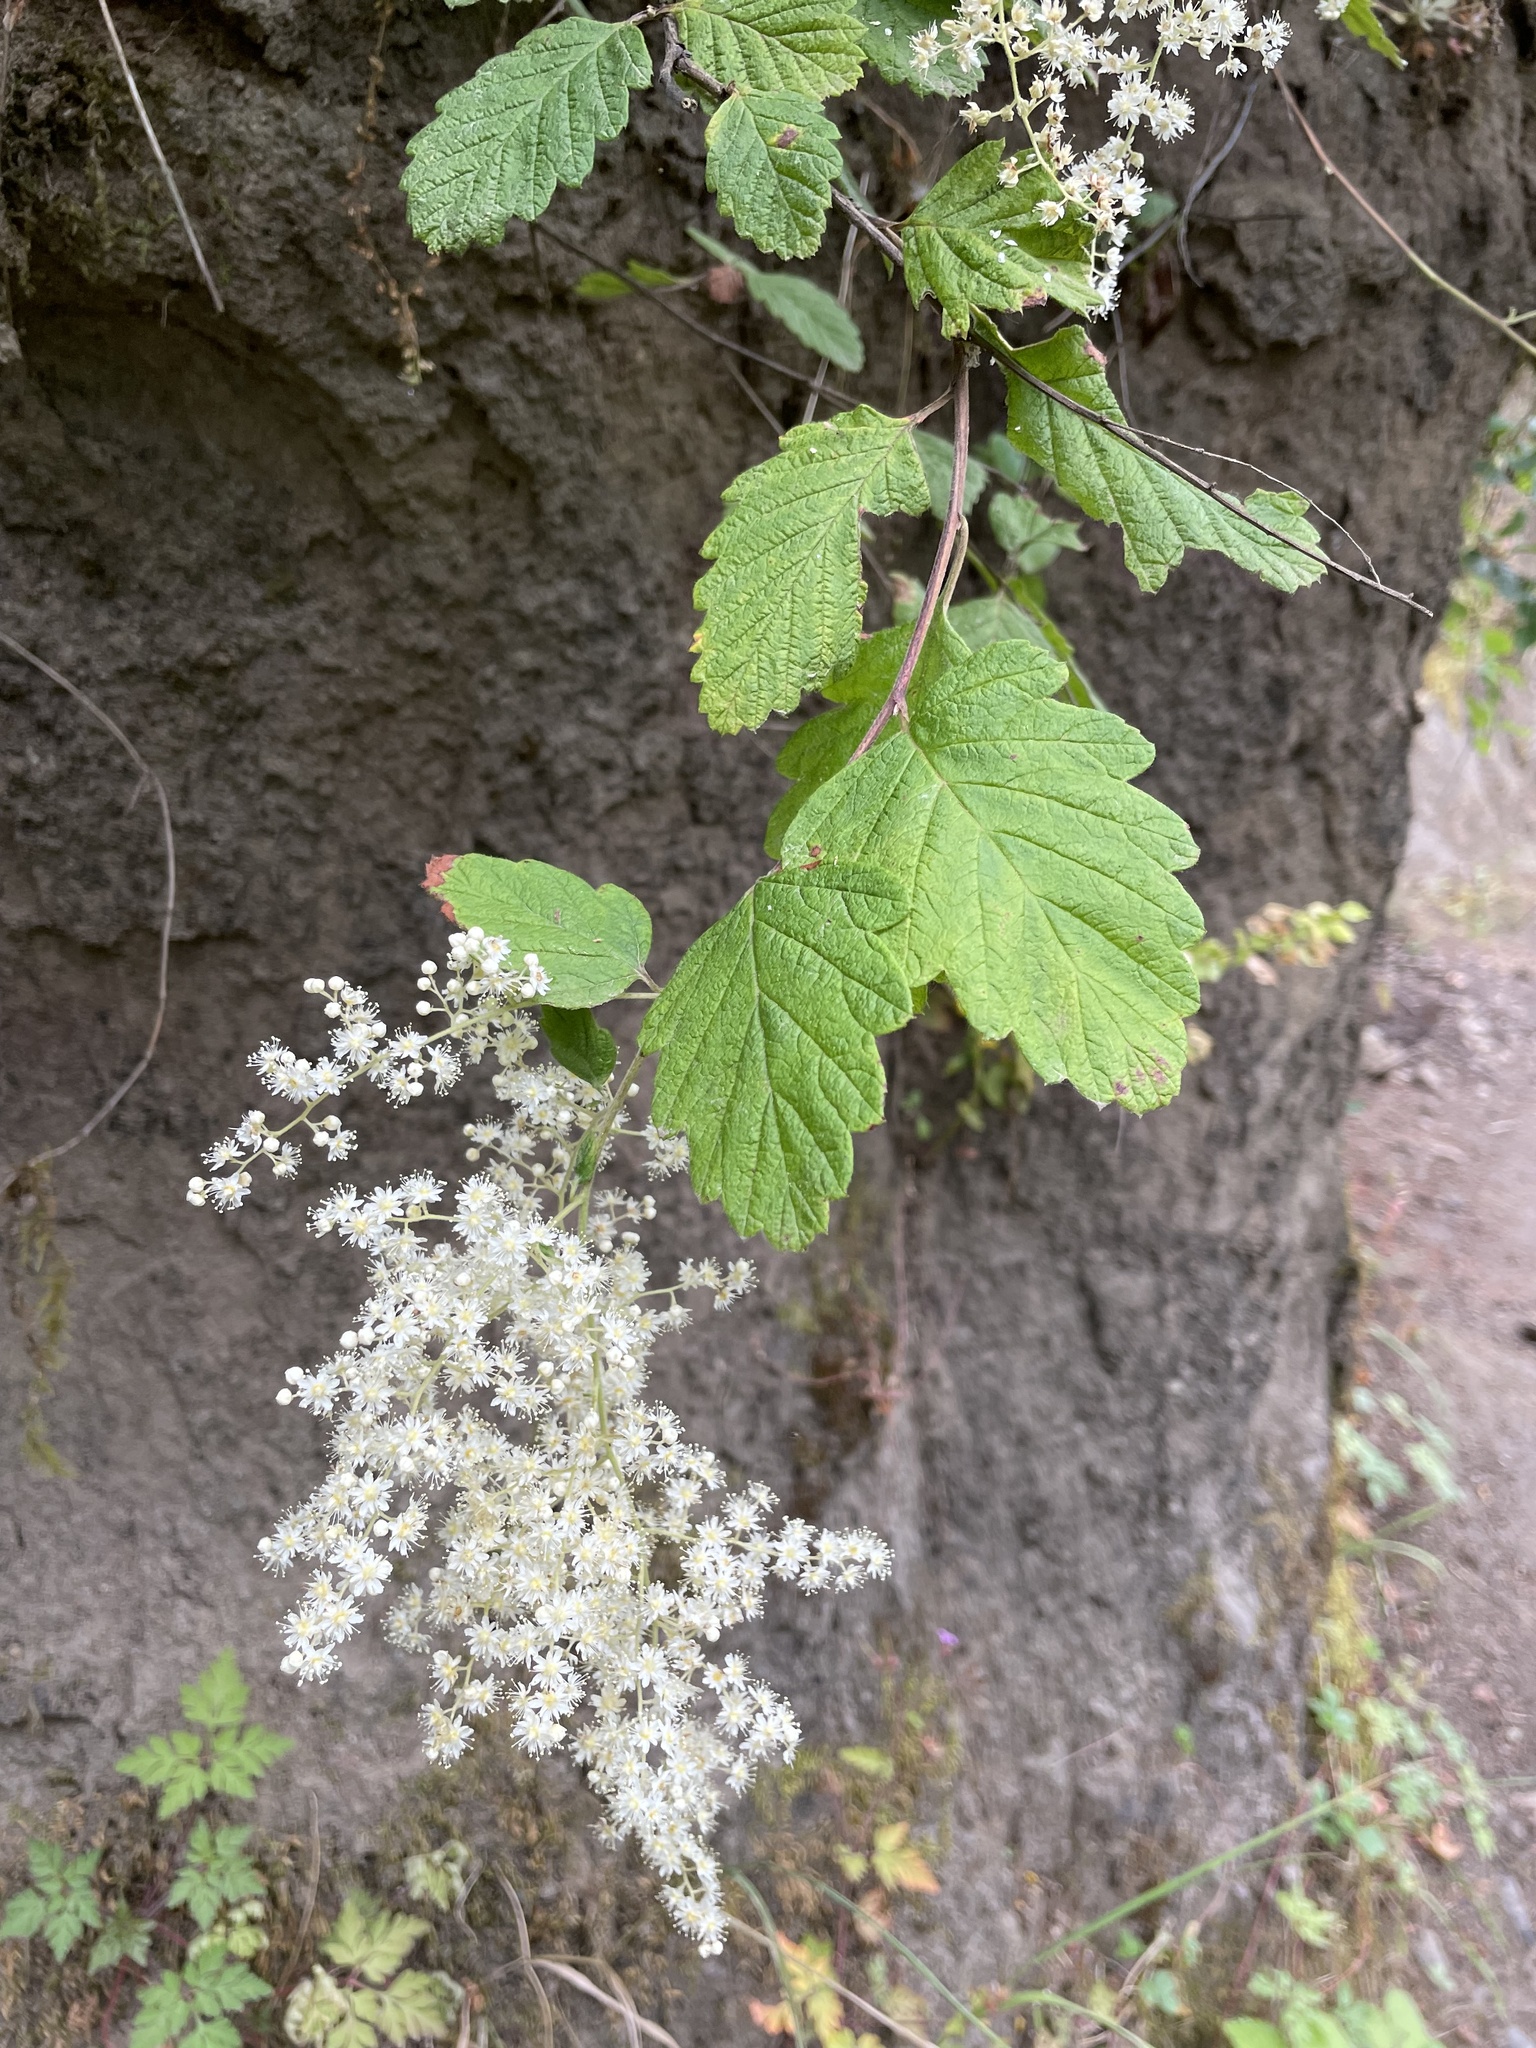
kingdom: Plantae
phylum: Tracheophyta
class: Magnoliopsida
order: Rosales
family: Rosaceae
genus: Holodiscus
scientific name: Holodiscus discolor
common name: Oceanspray
